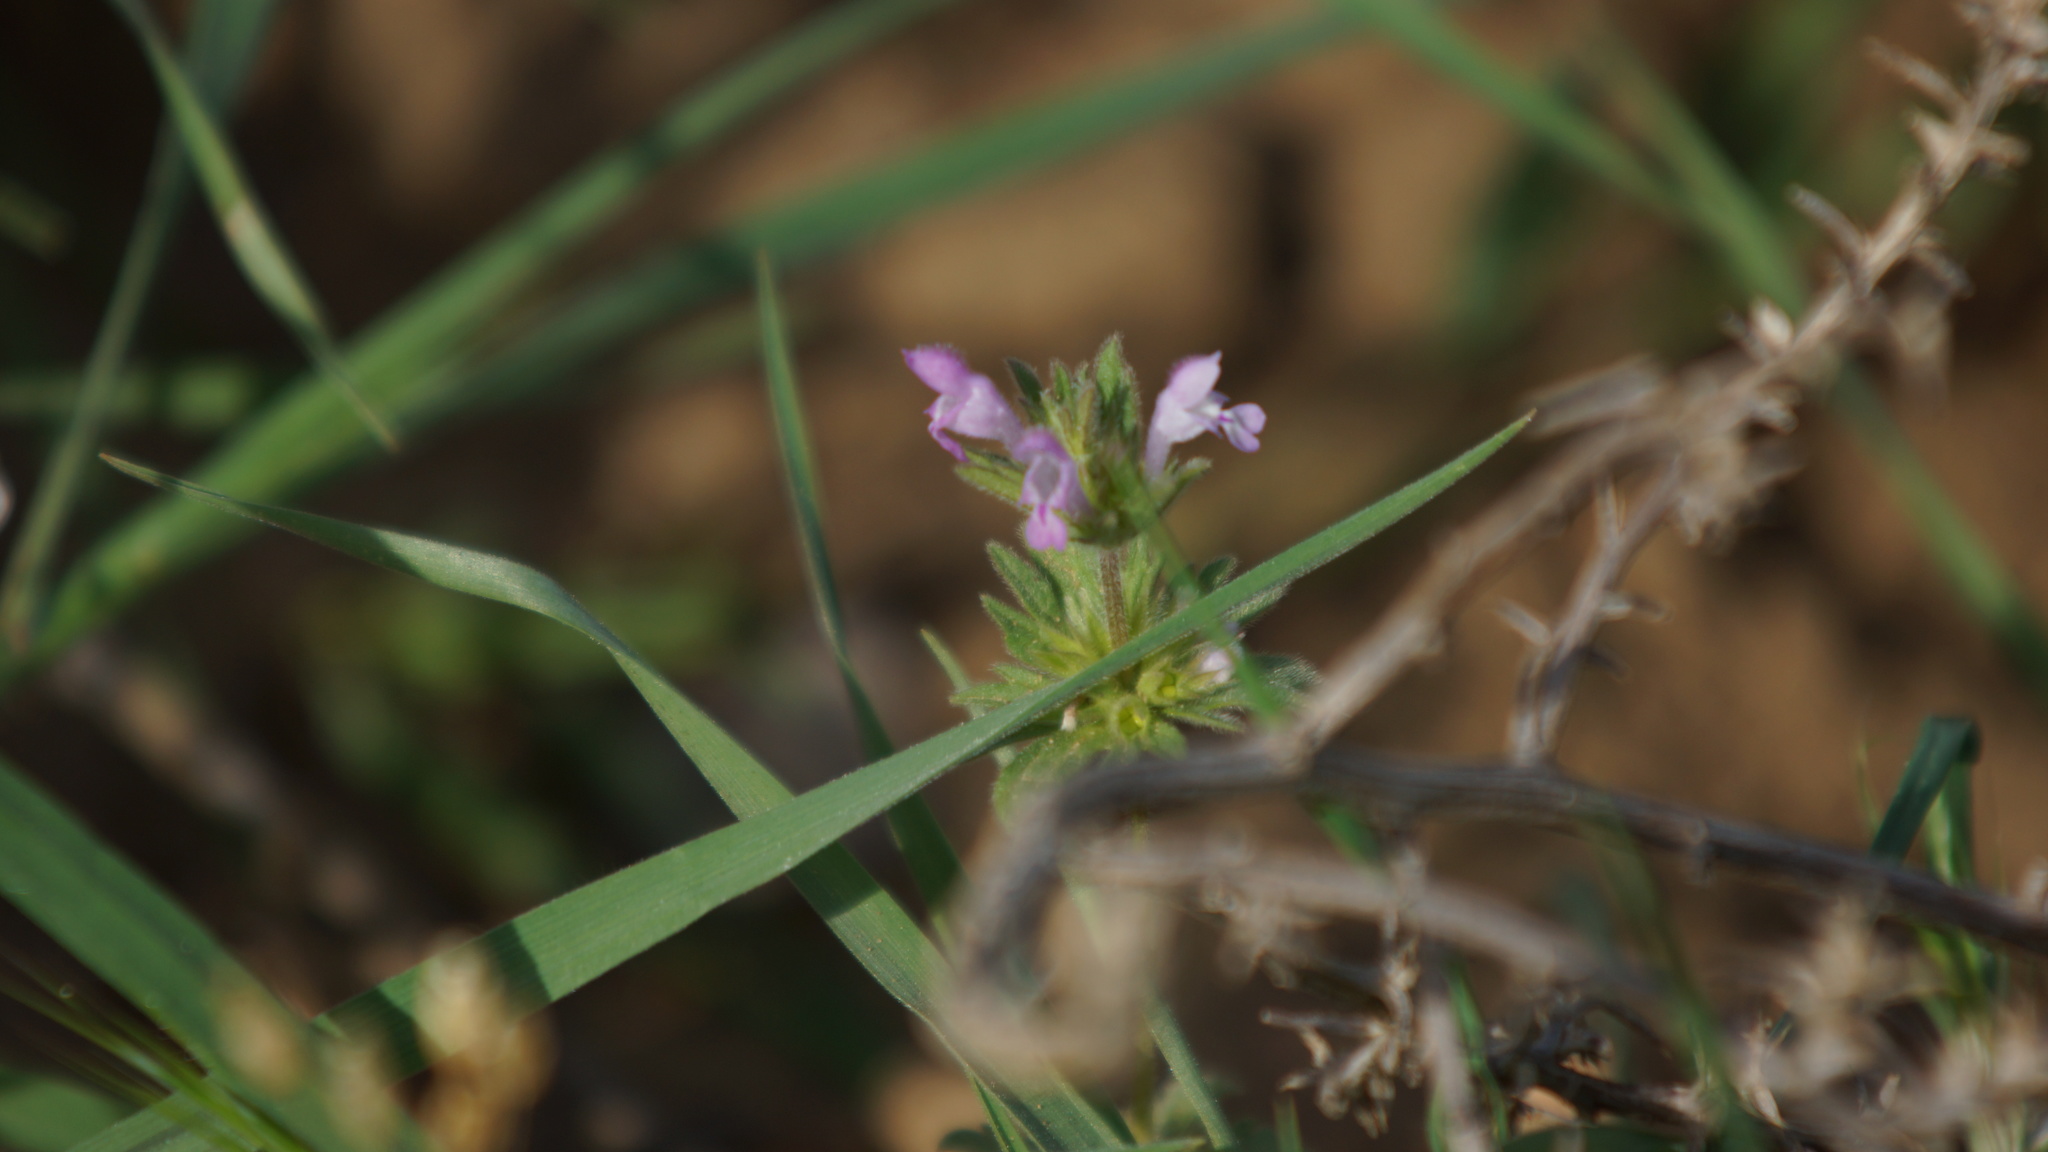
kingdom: Plantae
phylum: Tracheophyta
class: Magnoliopsida
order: Lamiales
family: Lamiaceae
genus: Lamium
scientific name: Lamium amplexicaule
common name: Henbit dead-nettle
